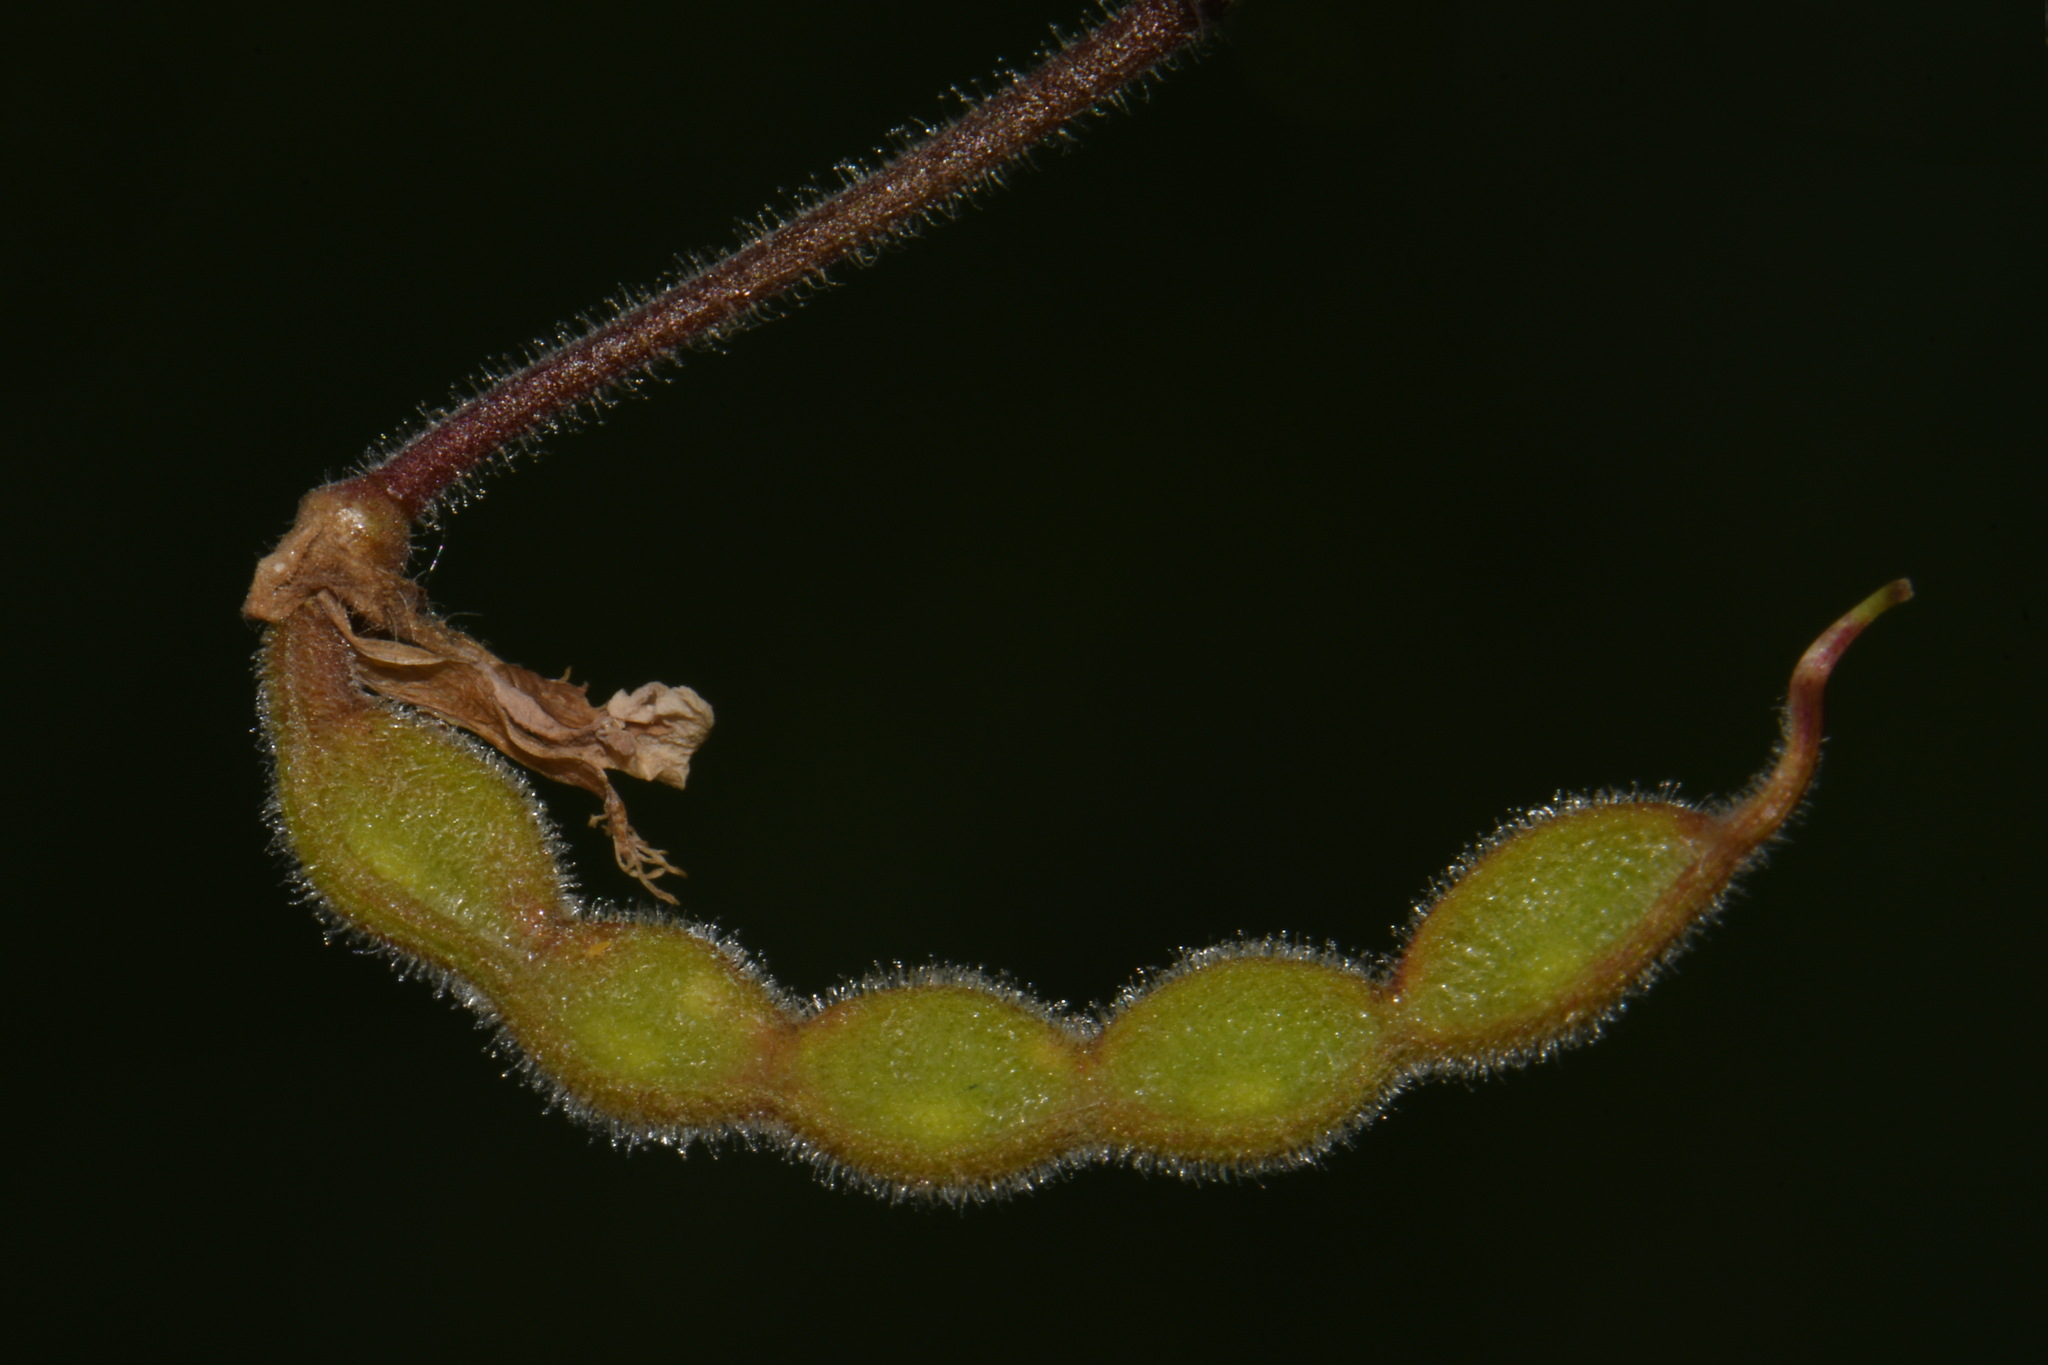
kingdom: Plantae
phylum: Tracheophyta
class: Magnoliopsida
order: Fabales
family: Fabaceae
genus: Desmodium
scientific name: Desmodium illinoense
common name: Illinois tick-clover
